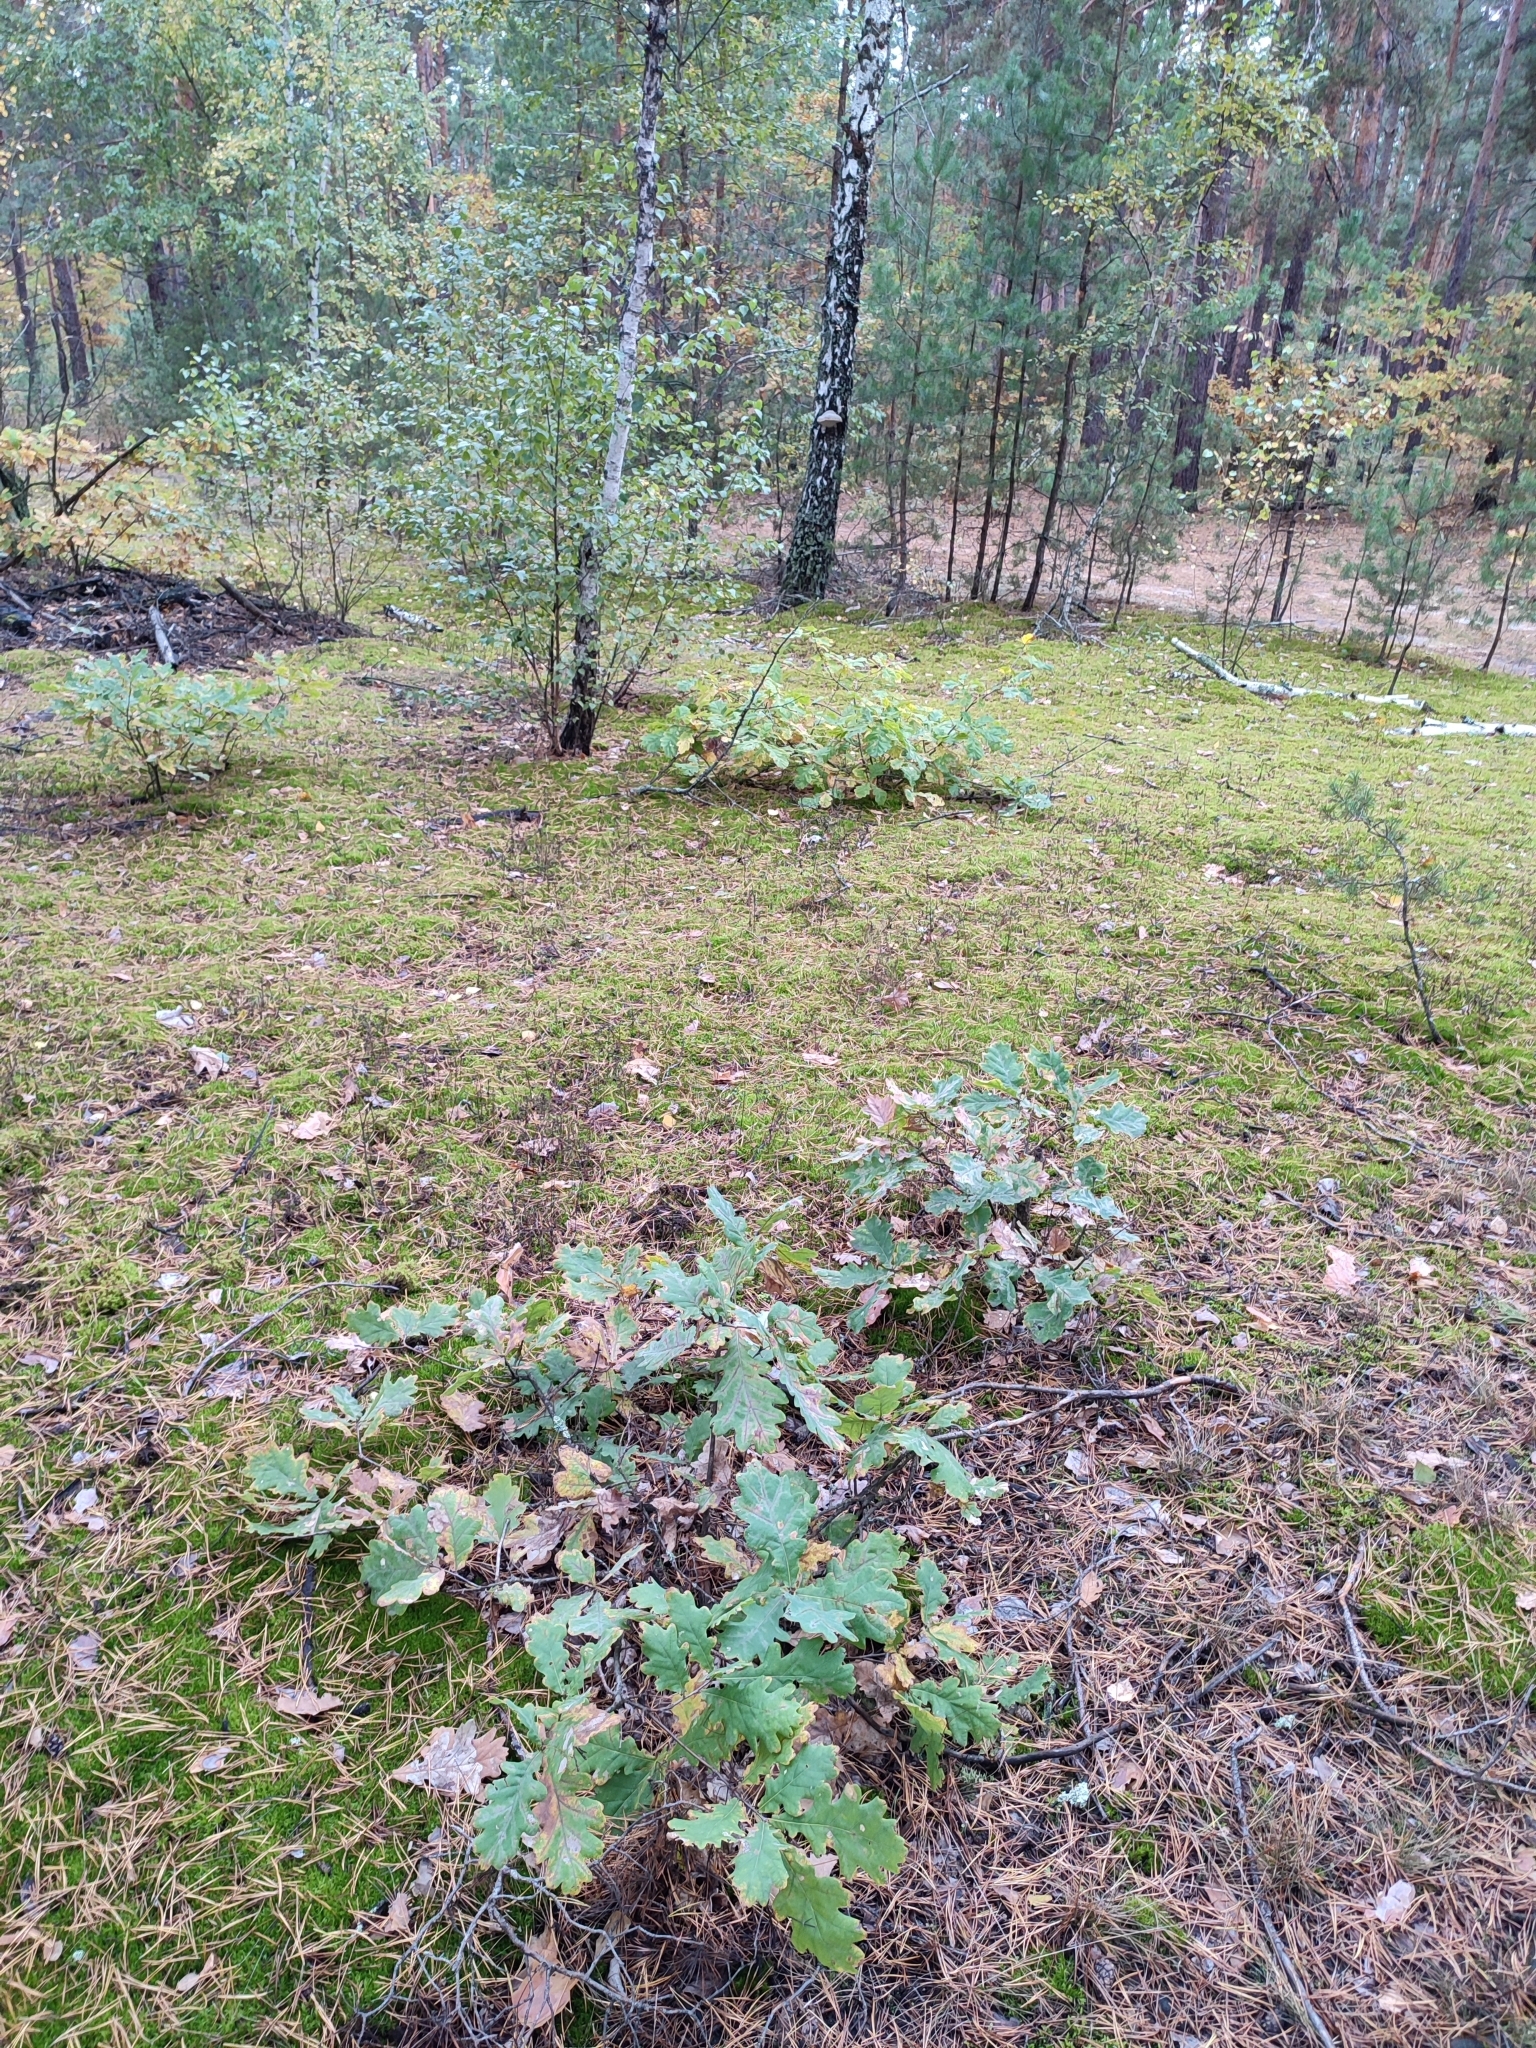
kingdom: Plantae
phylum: Tracheophyta
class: Magnoliopsida
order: Fagales
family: Fagaceae
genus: Quercus
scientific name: Quercus robur
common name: Pedunculate oak
